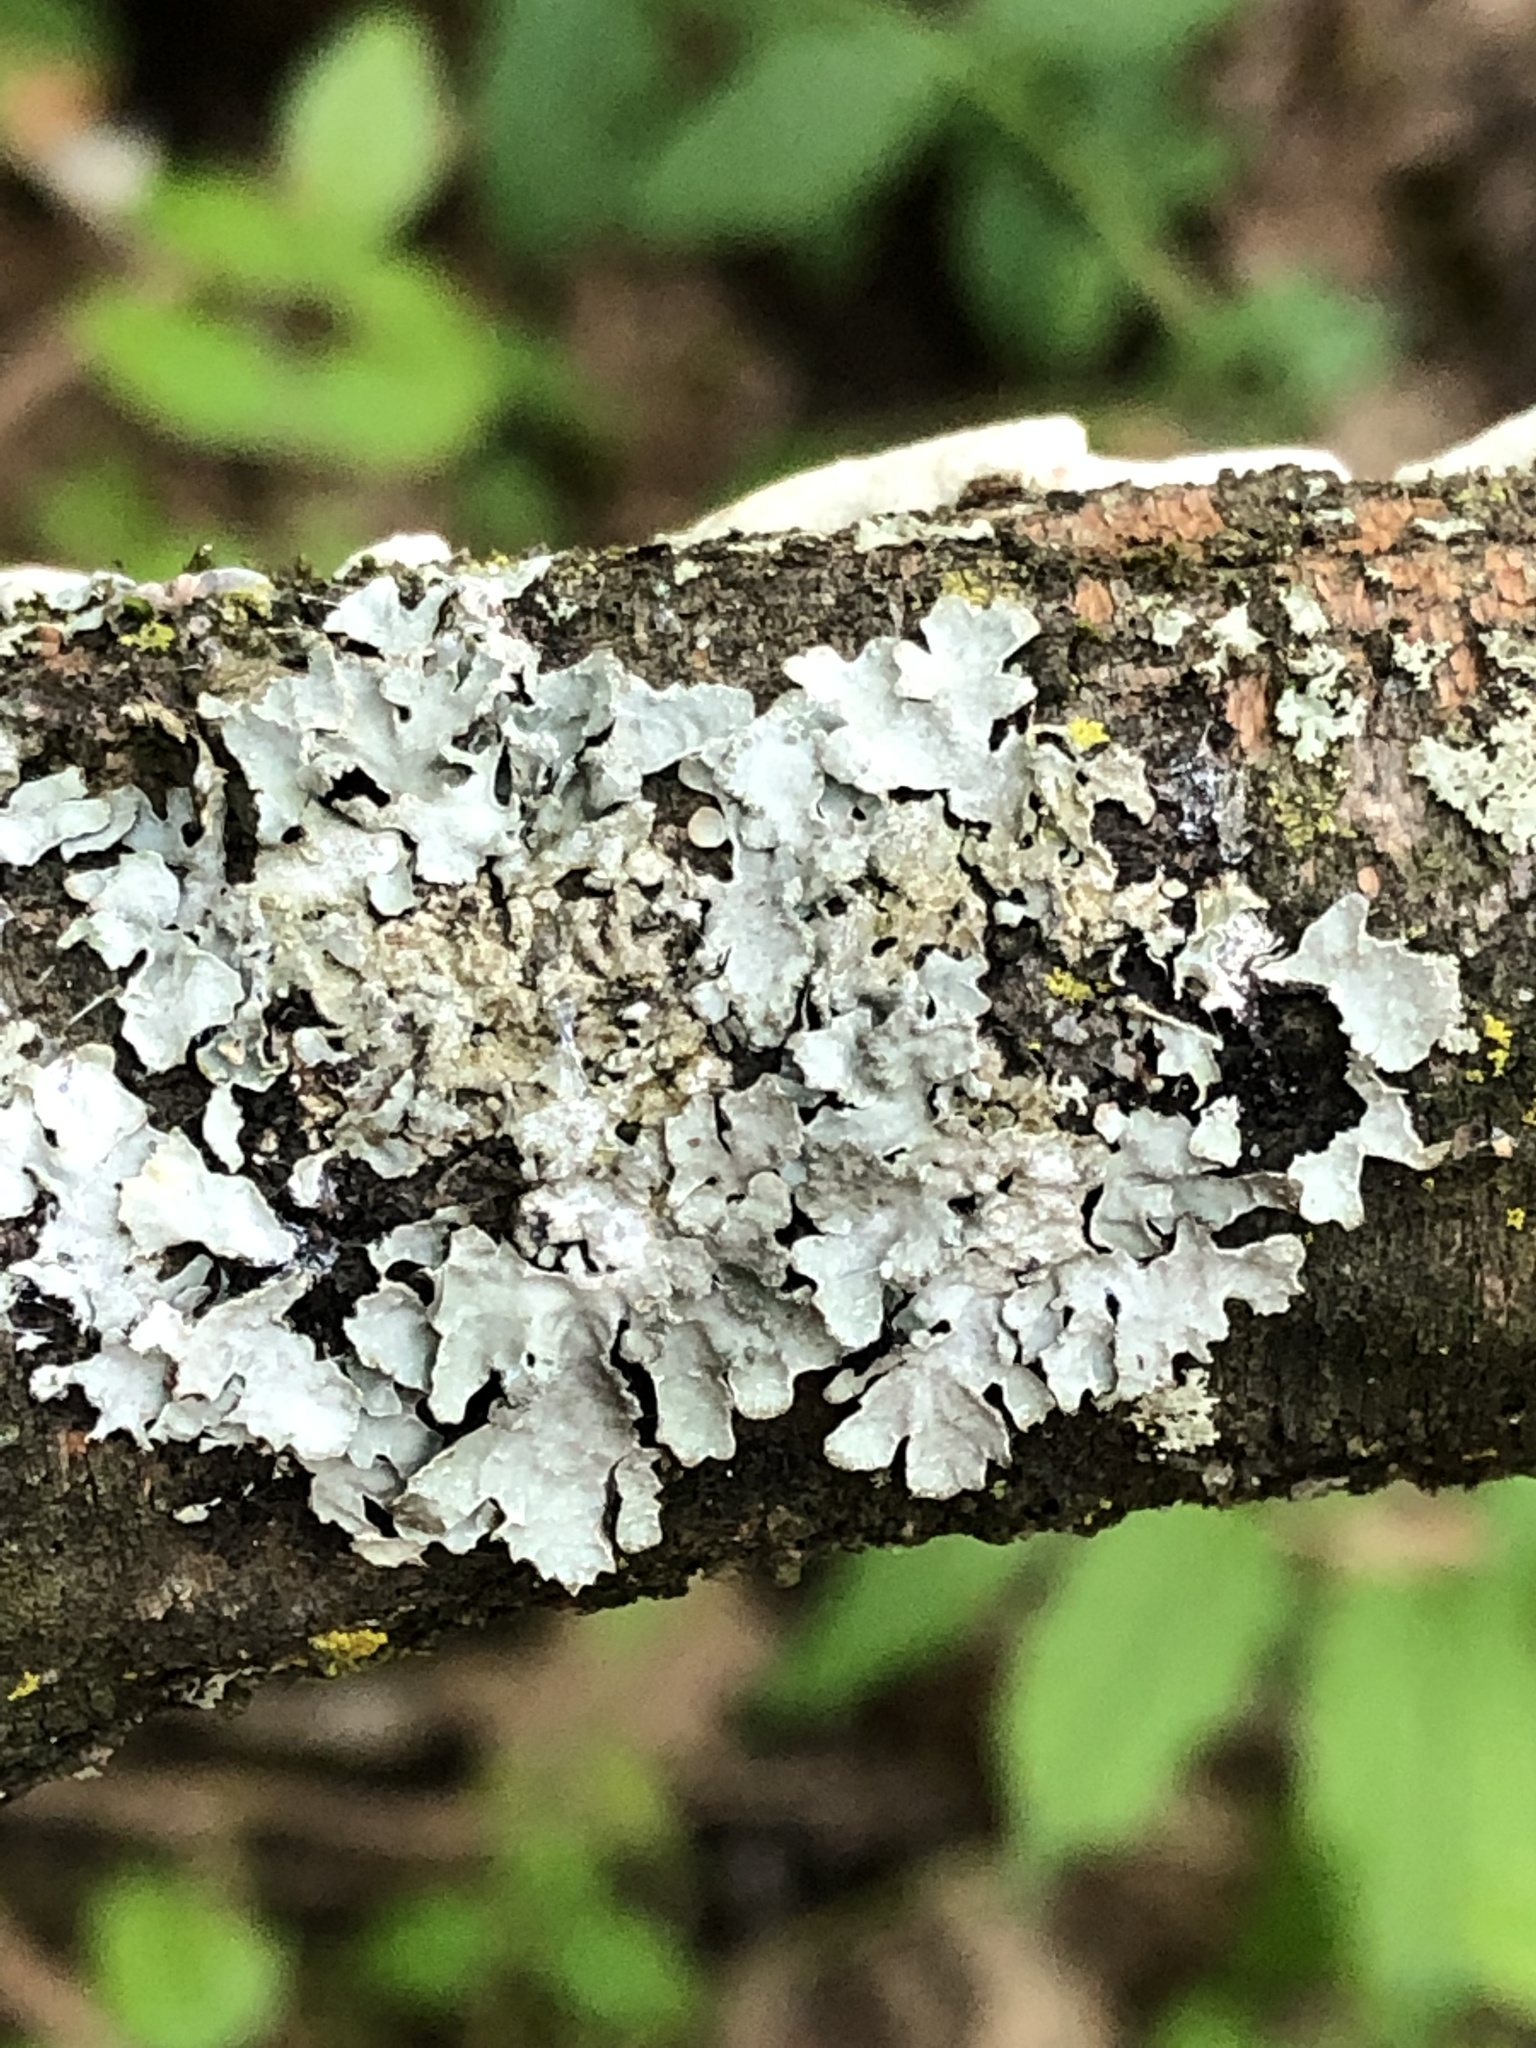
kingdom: Fungi
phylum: Ascomycota
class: Lecanoromycetes
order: Lecanorales
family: Parmeliaceae
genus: Parmelia
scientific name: Parmelia sulcata
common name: Netted shield lichen
